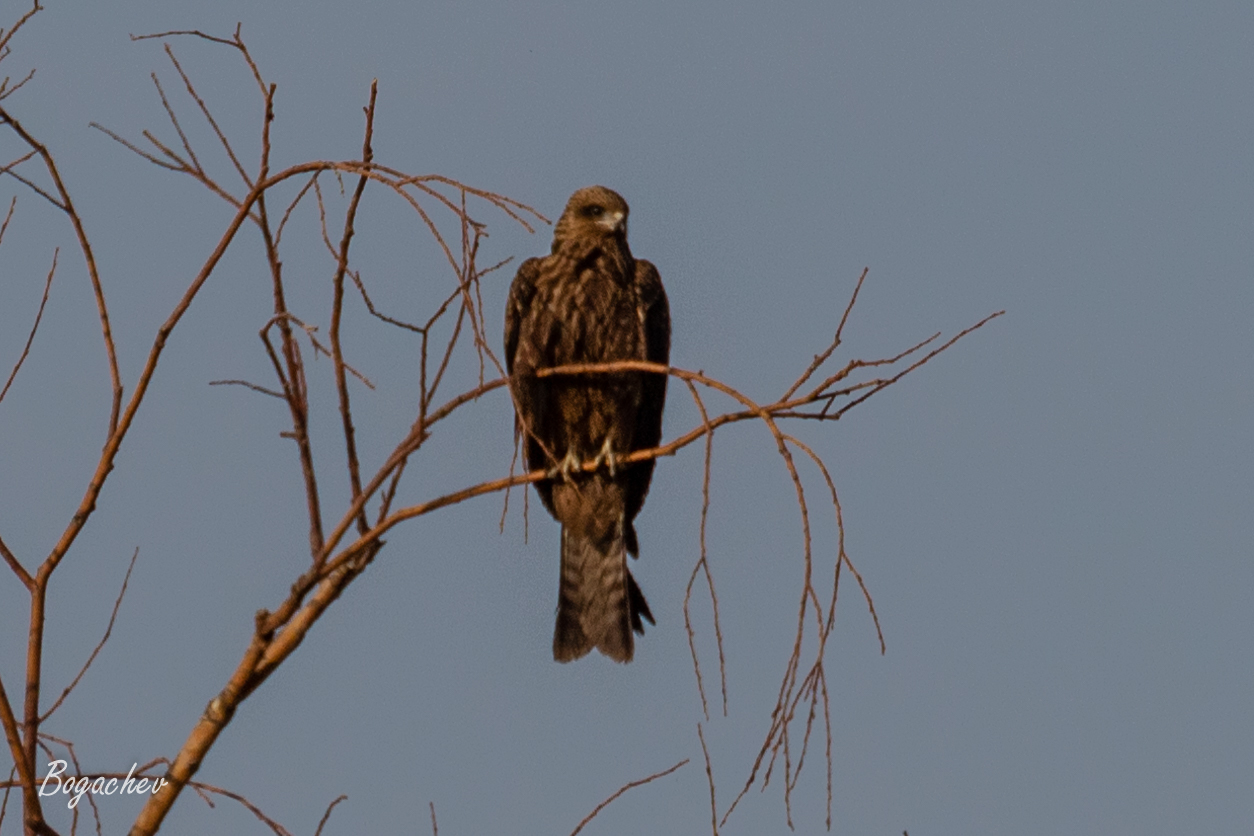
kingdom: Animalia
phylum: Chordata
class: Aves
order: Accipitriformes
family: Accipitridae
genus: Milvus
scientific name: Milvus migrans
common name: Black kite
